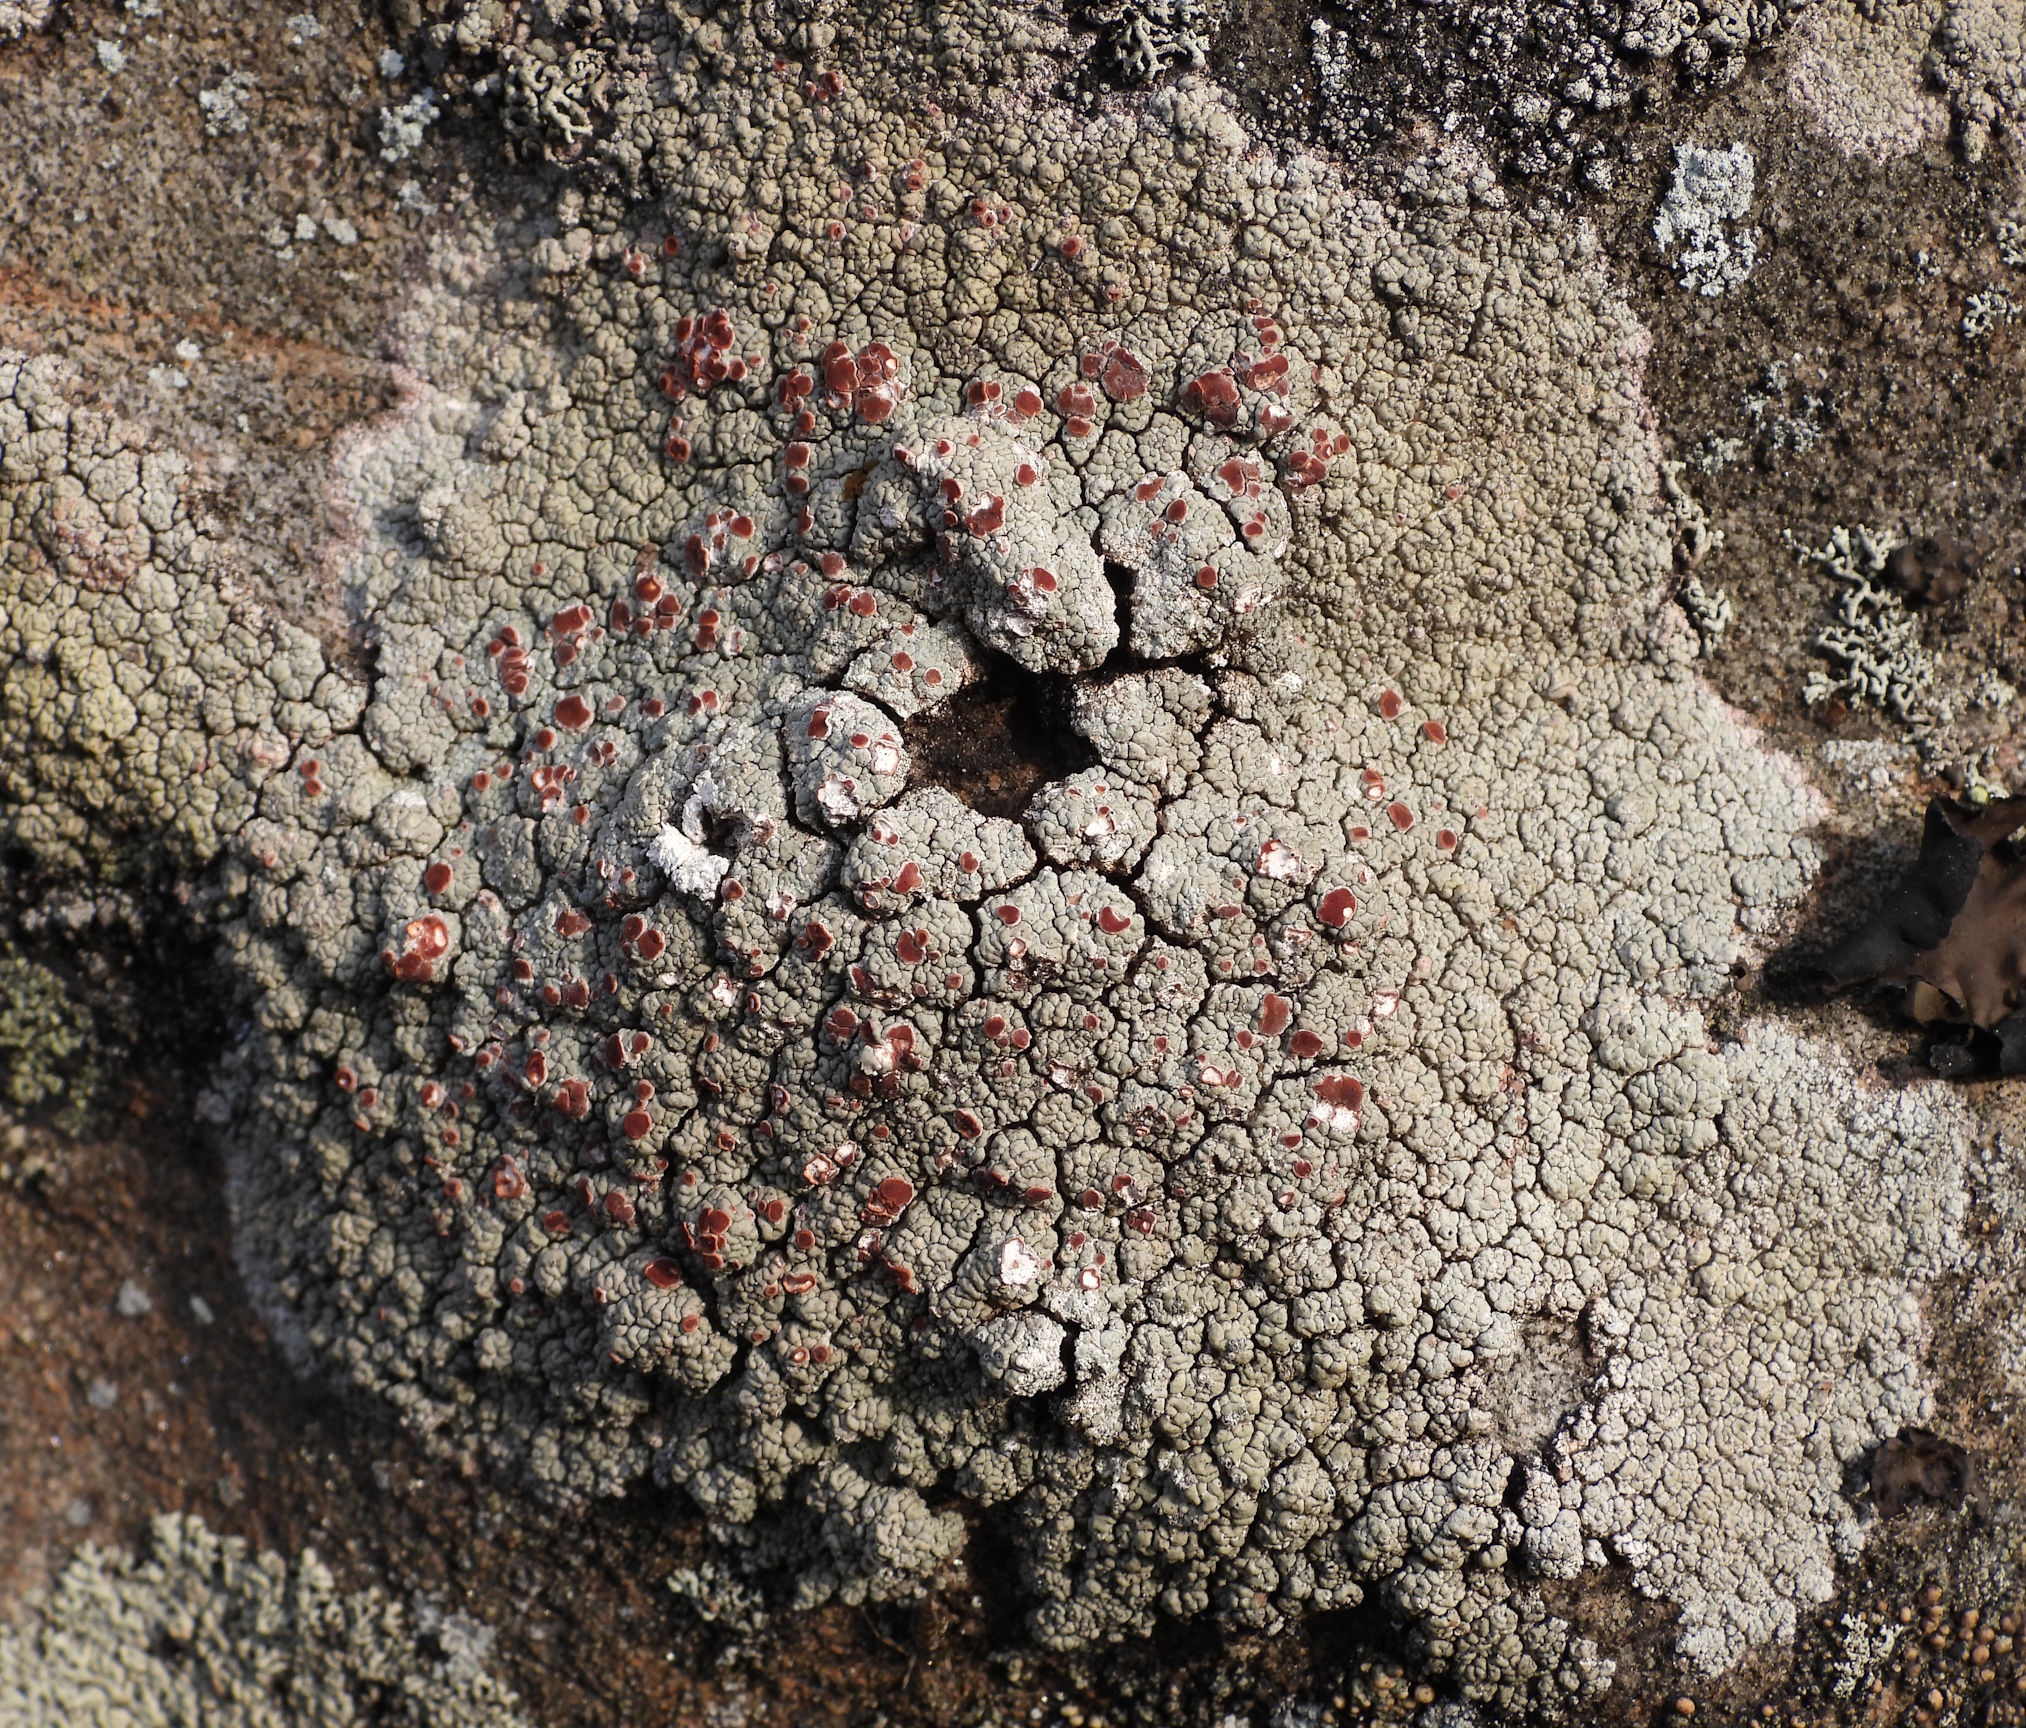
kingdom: Fungi
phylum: Ascomycota
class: Lecanoromycetes
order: Umbilicariales
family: Ophioparmaceae
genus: Ophioparma
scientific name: Ophioparma ventosa
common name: Blood-spot
